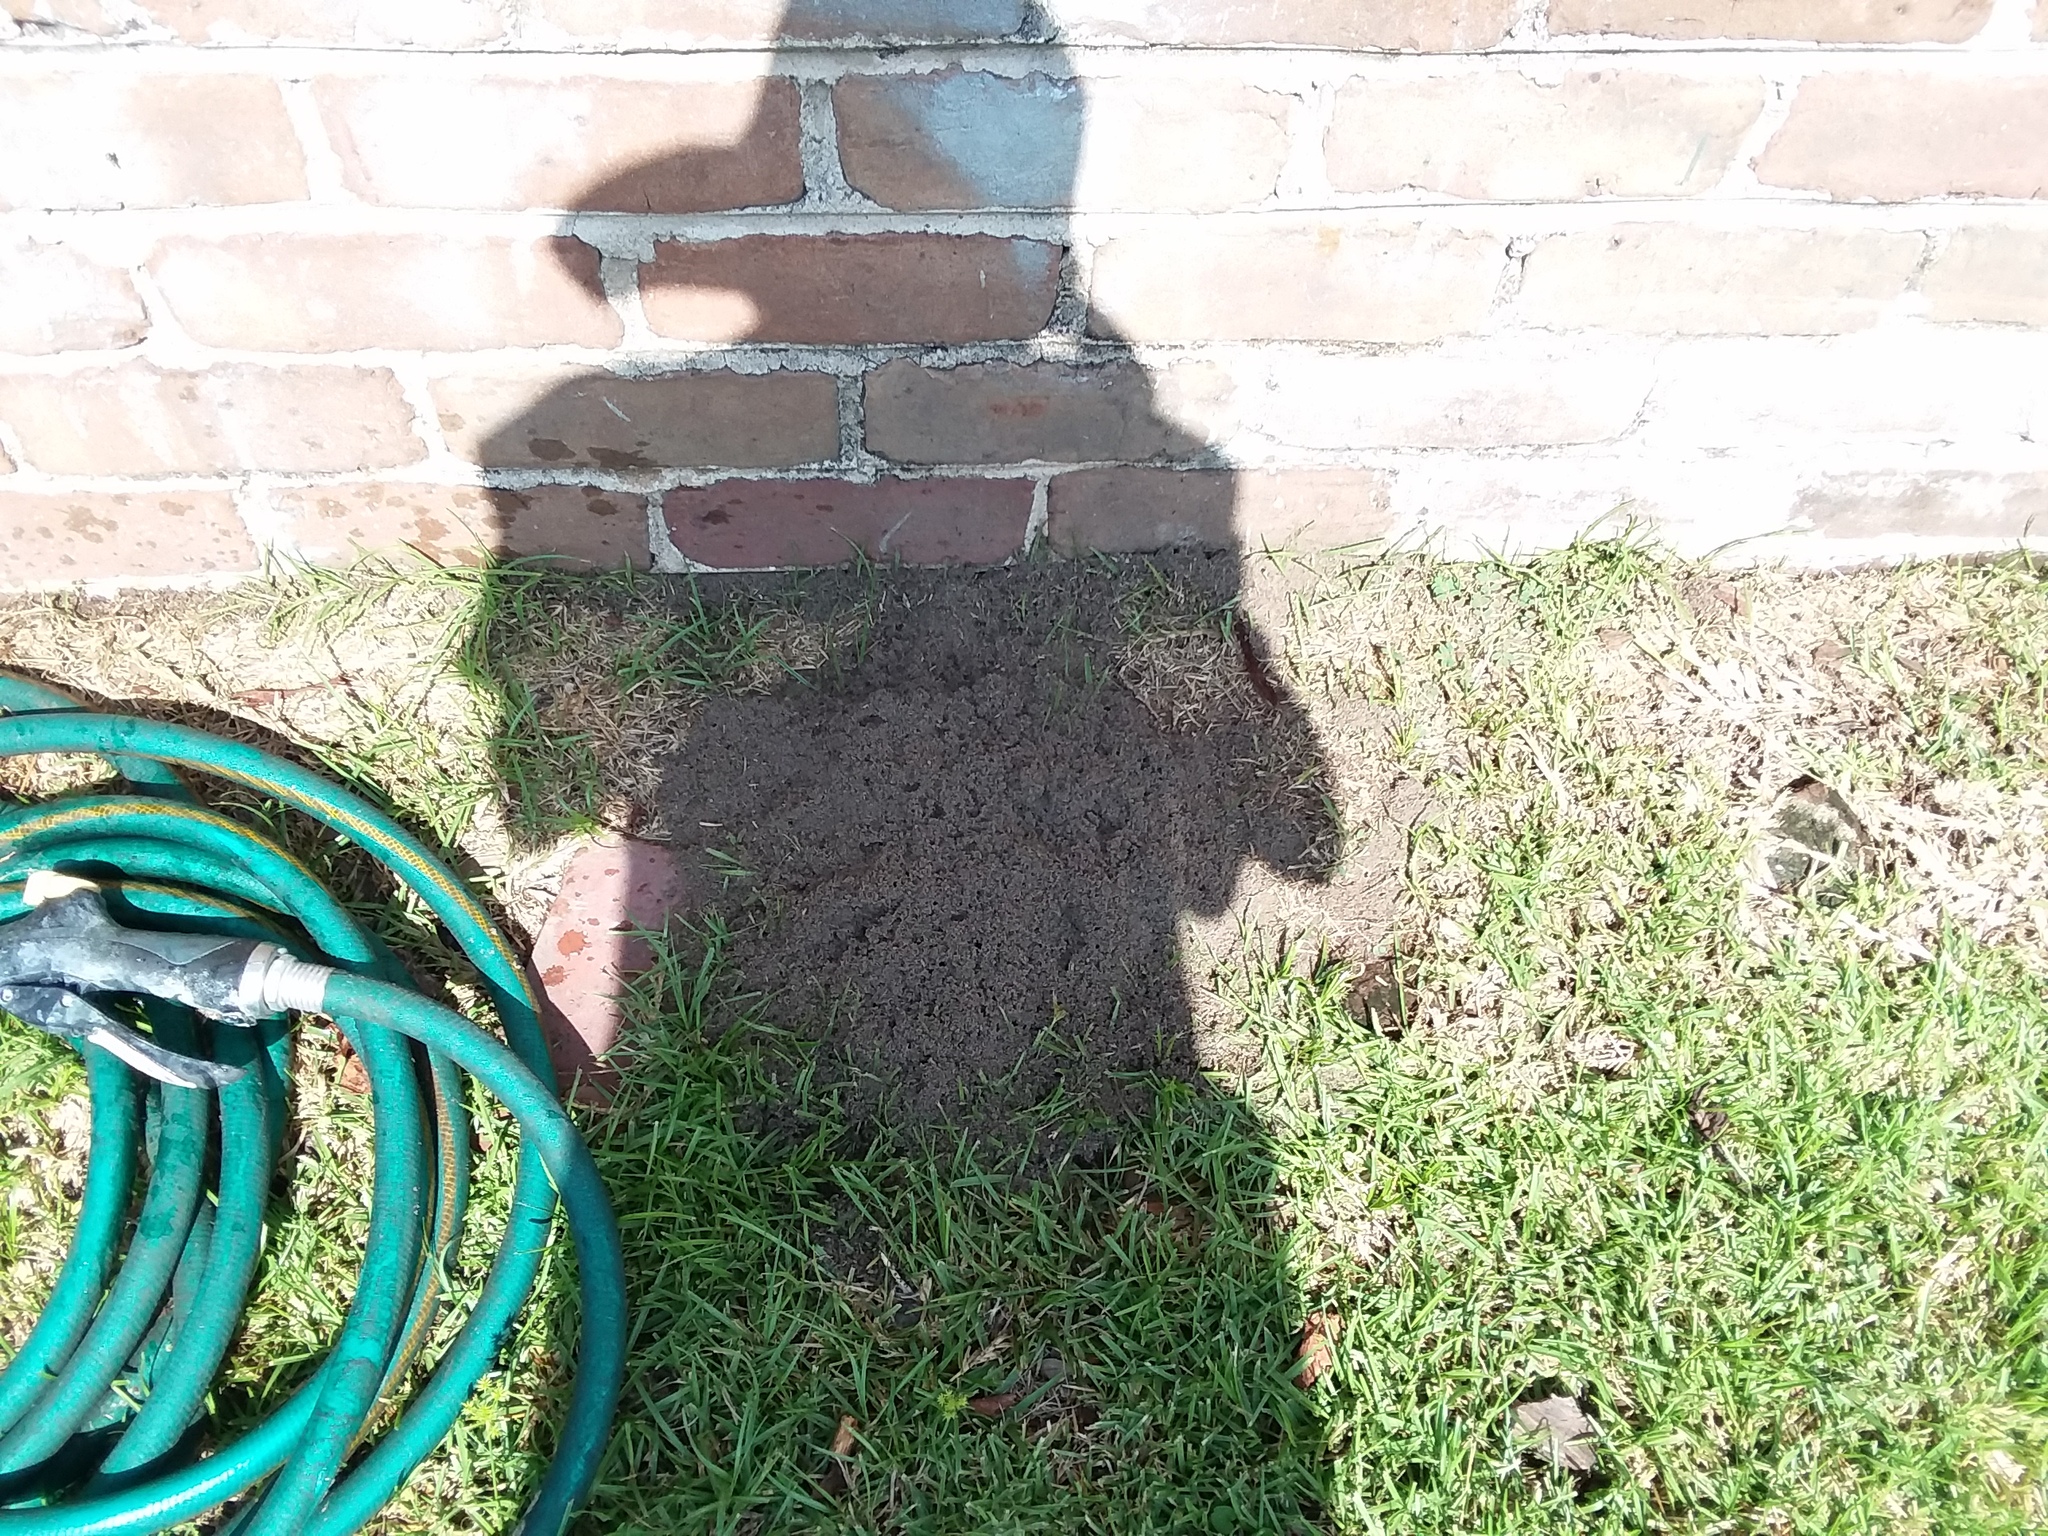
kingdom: Animalia
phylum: Arthropoda
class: Insecta
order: Hymenoptera
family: Formicidae
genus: Solenopsis
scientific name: Solenopsis invicta
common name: Red imported fire ant
